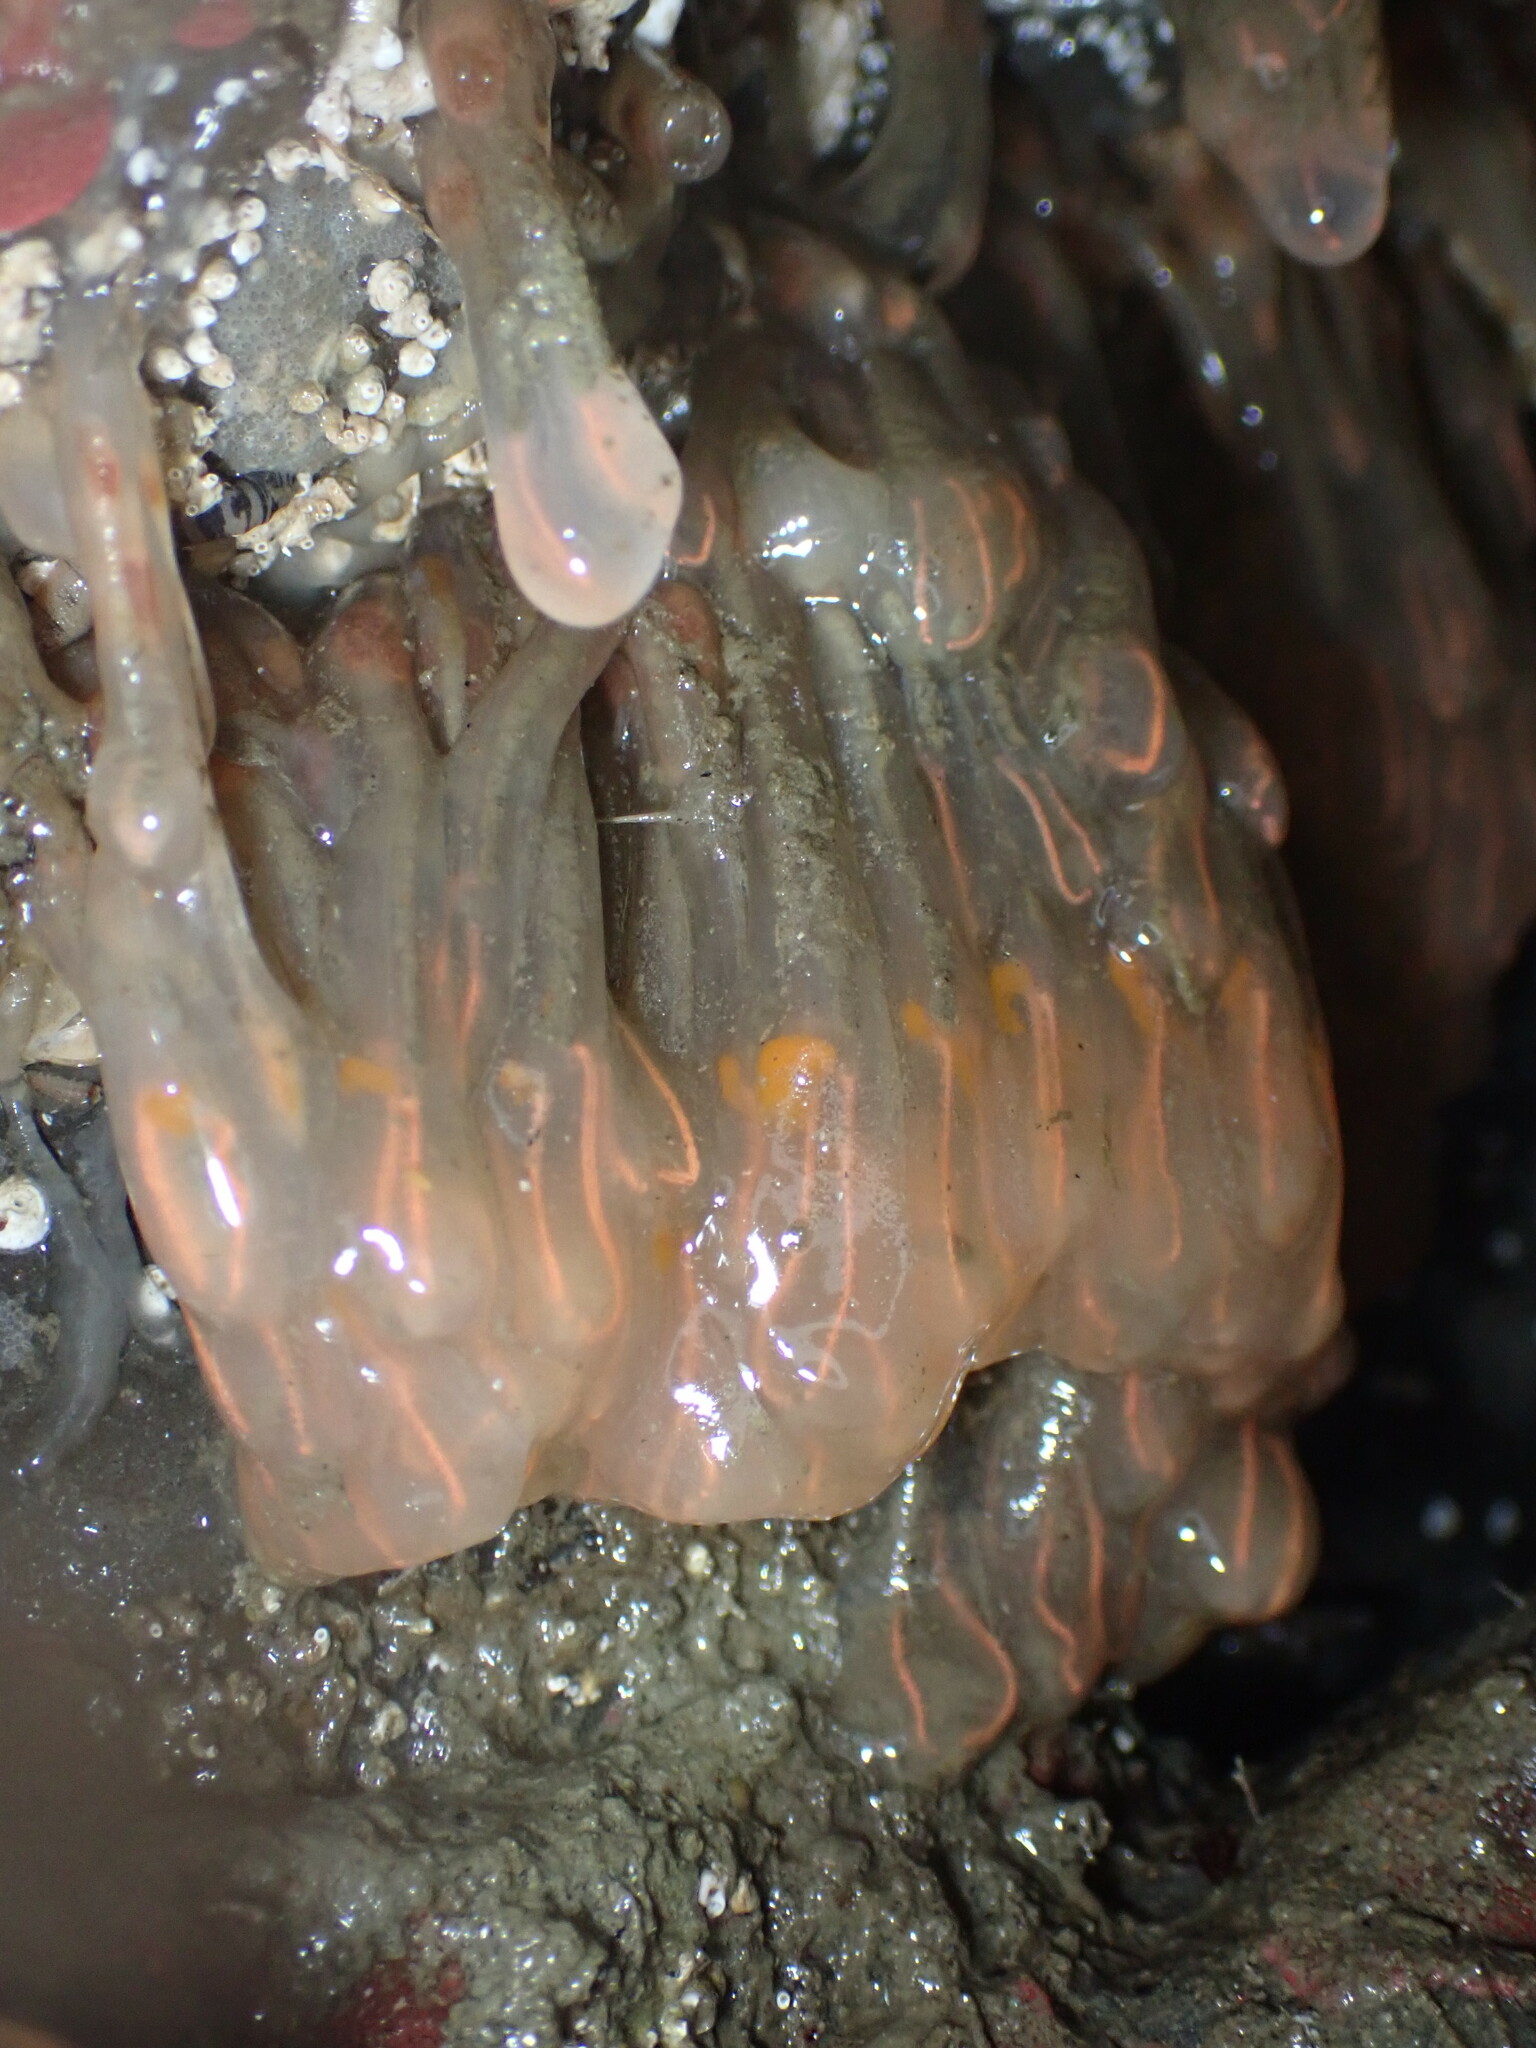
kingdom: Animalia
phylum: Chordata
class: Ascidiacea
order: Aplousobranchia
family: Clavelinidae
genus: Clavelina
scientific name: Clavelina huntsmani
